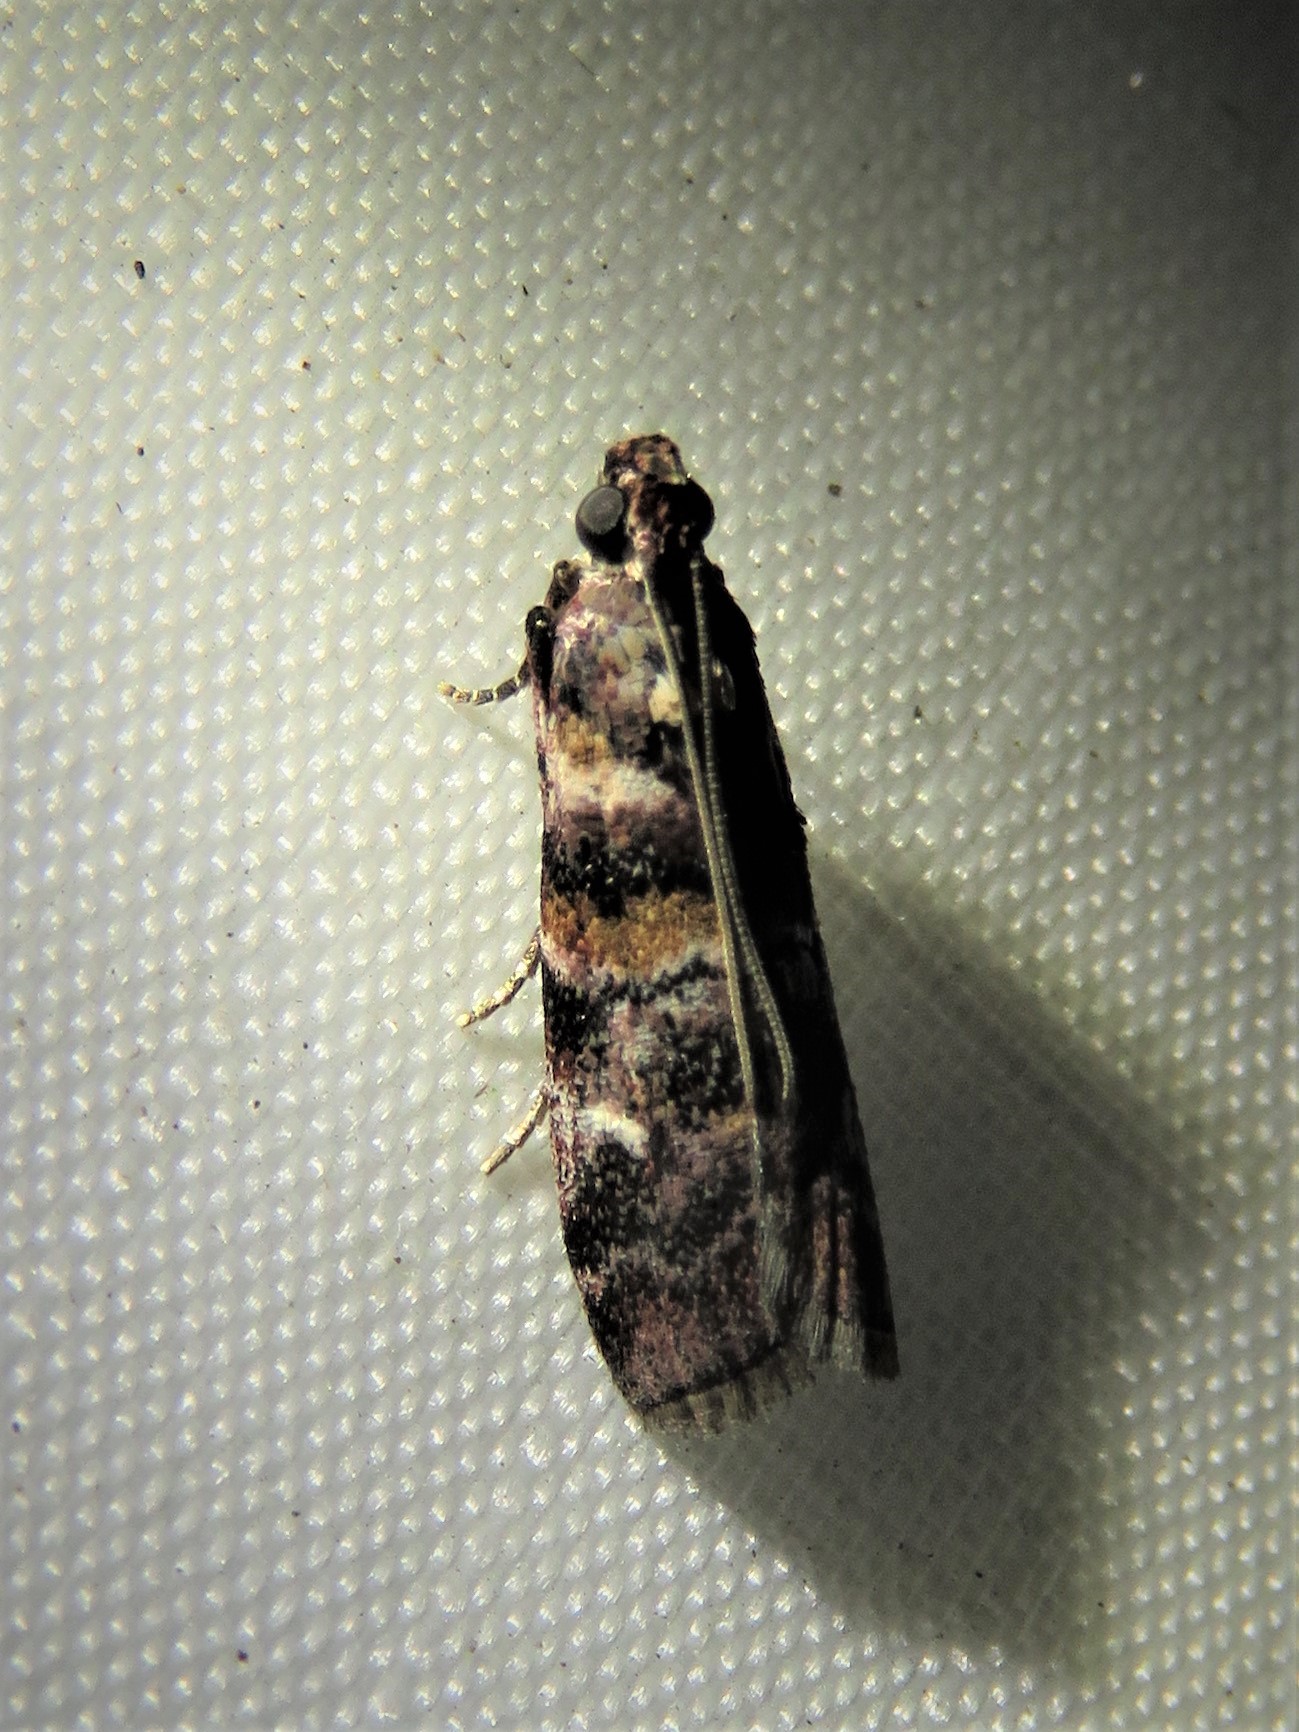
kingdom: Animalia
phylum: Arthropoda
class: Insecta
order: Lepidoptera
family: Pyralidae
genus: Dioryctria
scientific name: Dioryctria pygmaeella
